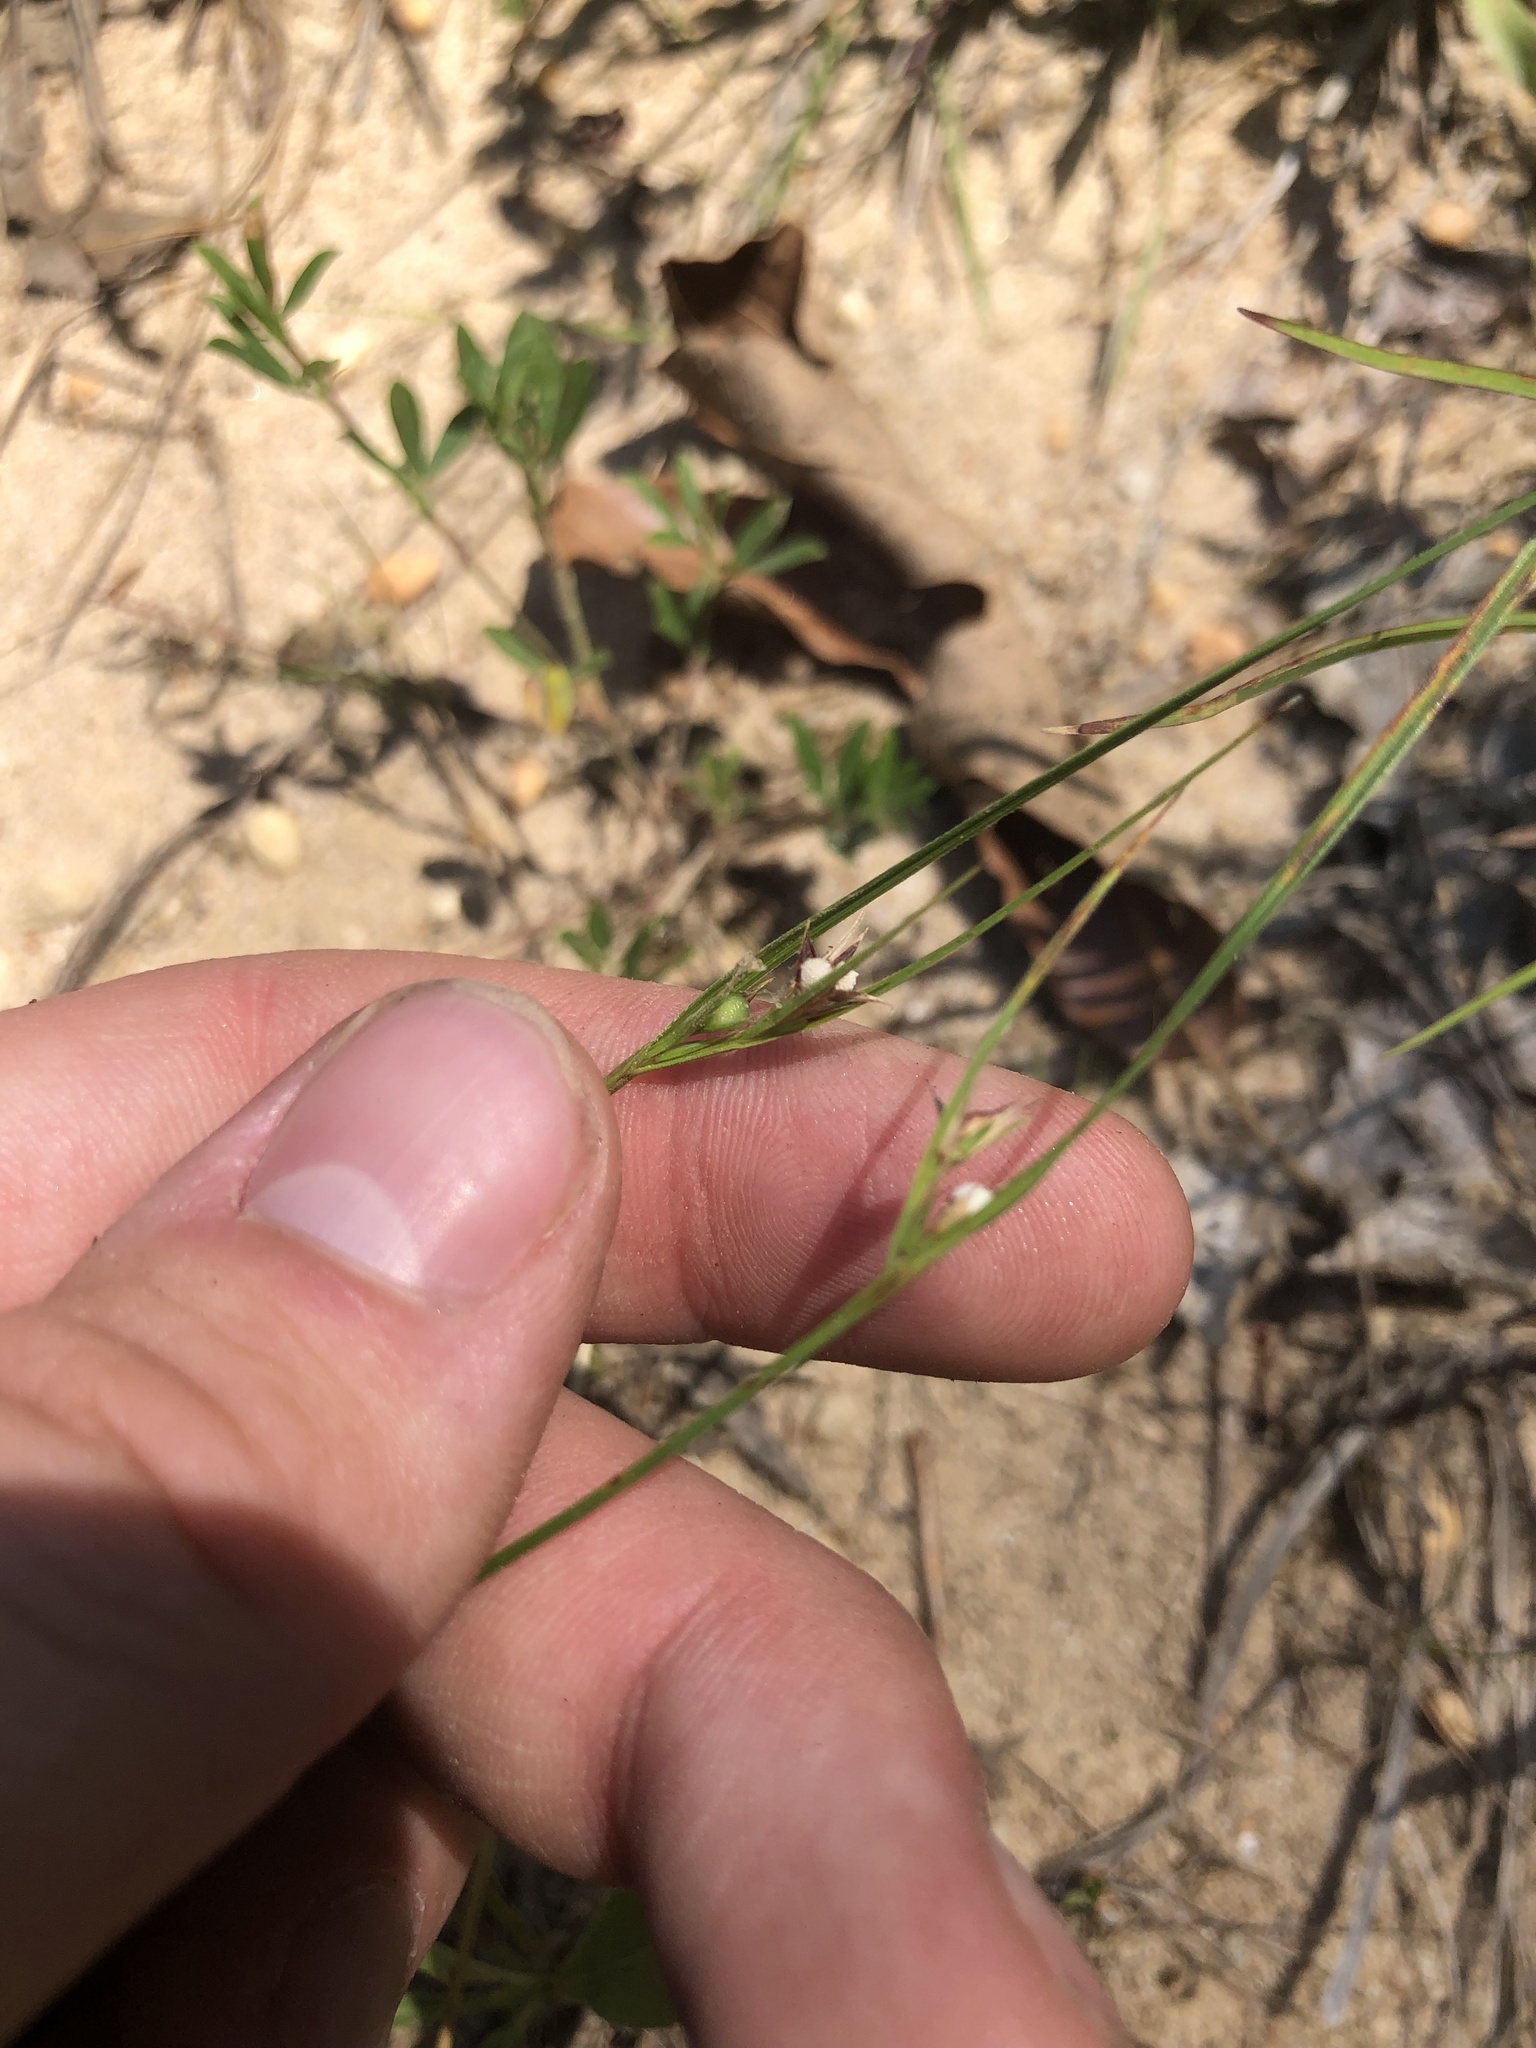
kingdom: Plantae
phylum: Tracheophyta
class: Liliopsida
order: Poales
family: Cyperaceae
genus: Scleria
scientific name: Scleria pauciflora
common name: Few-flowered nutrush
